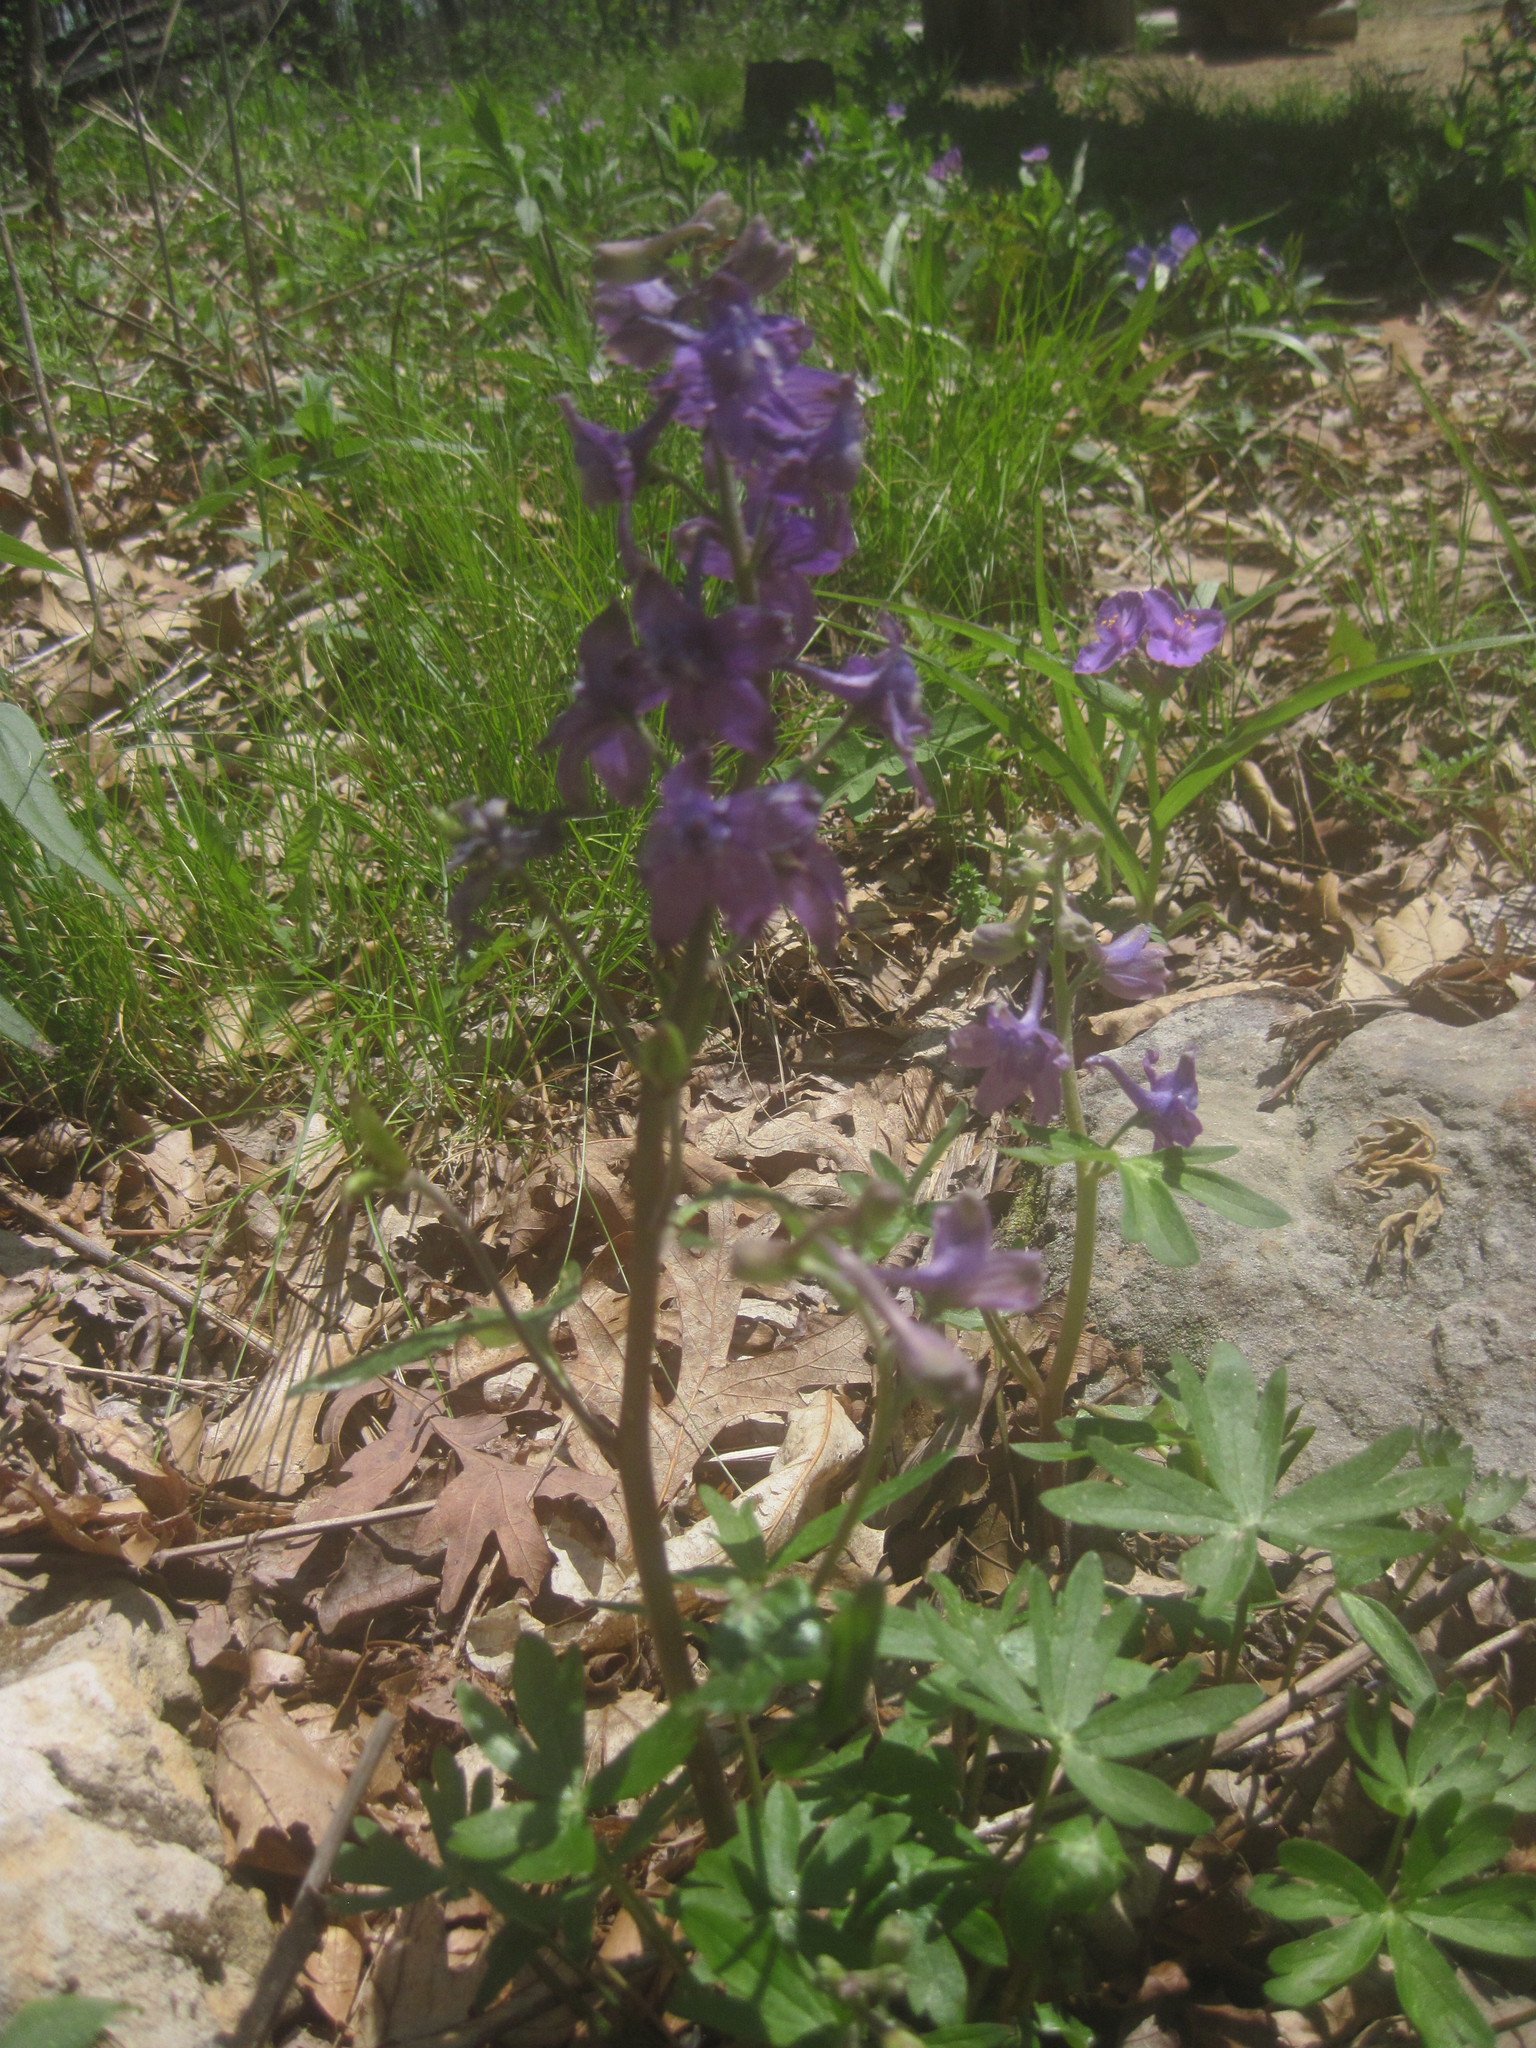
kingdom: Plantae
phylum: Tracheophyta
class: Magnoliopsida
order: Ranunculales
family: Ranunculaceae
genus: Delphinium
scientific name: Delphinium tricorne
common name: Dwarf larkspur
